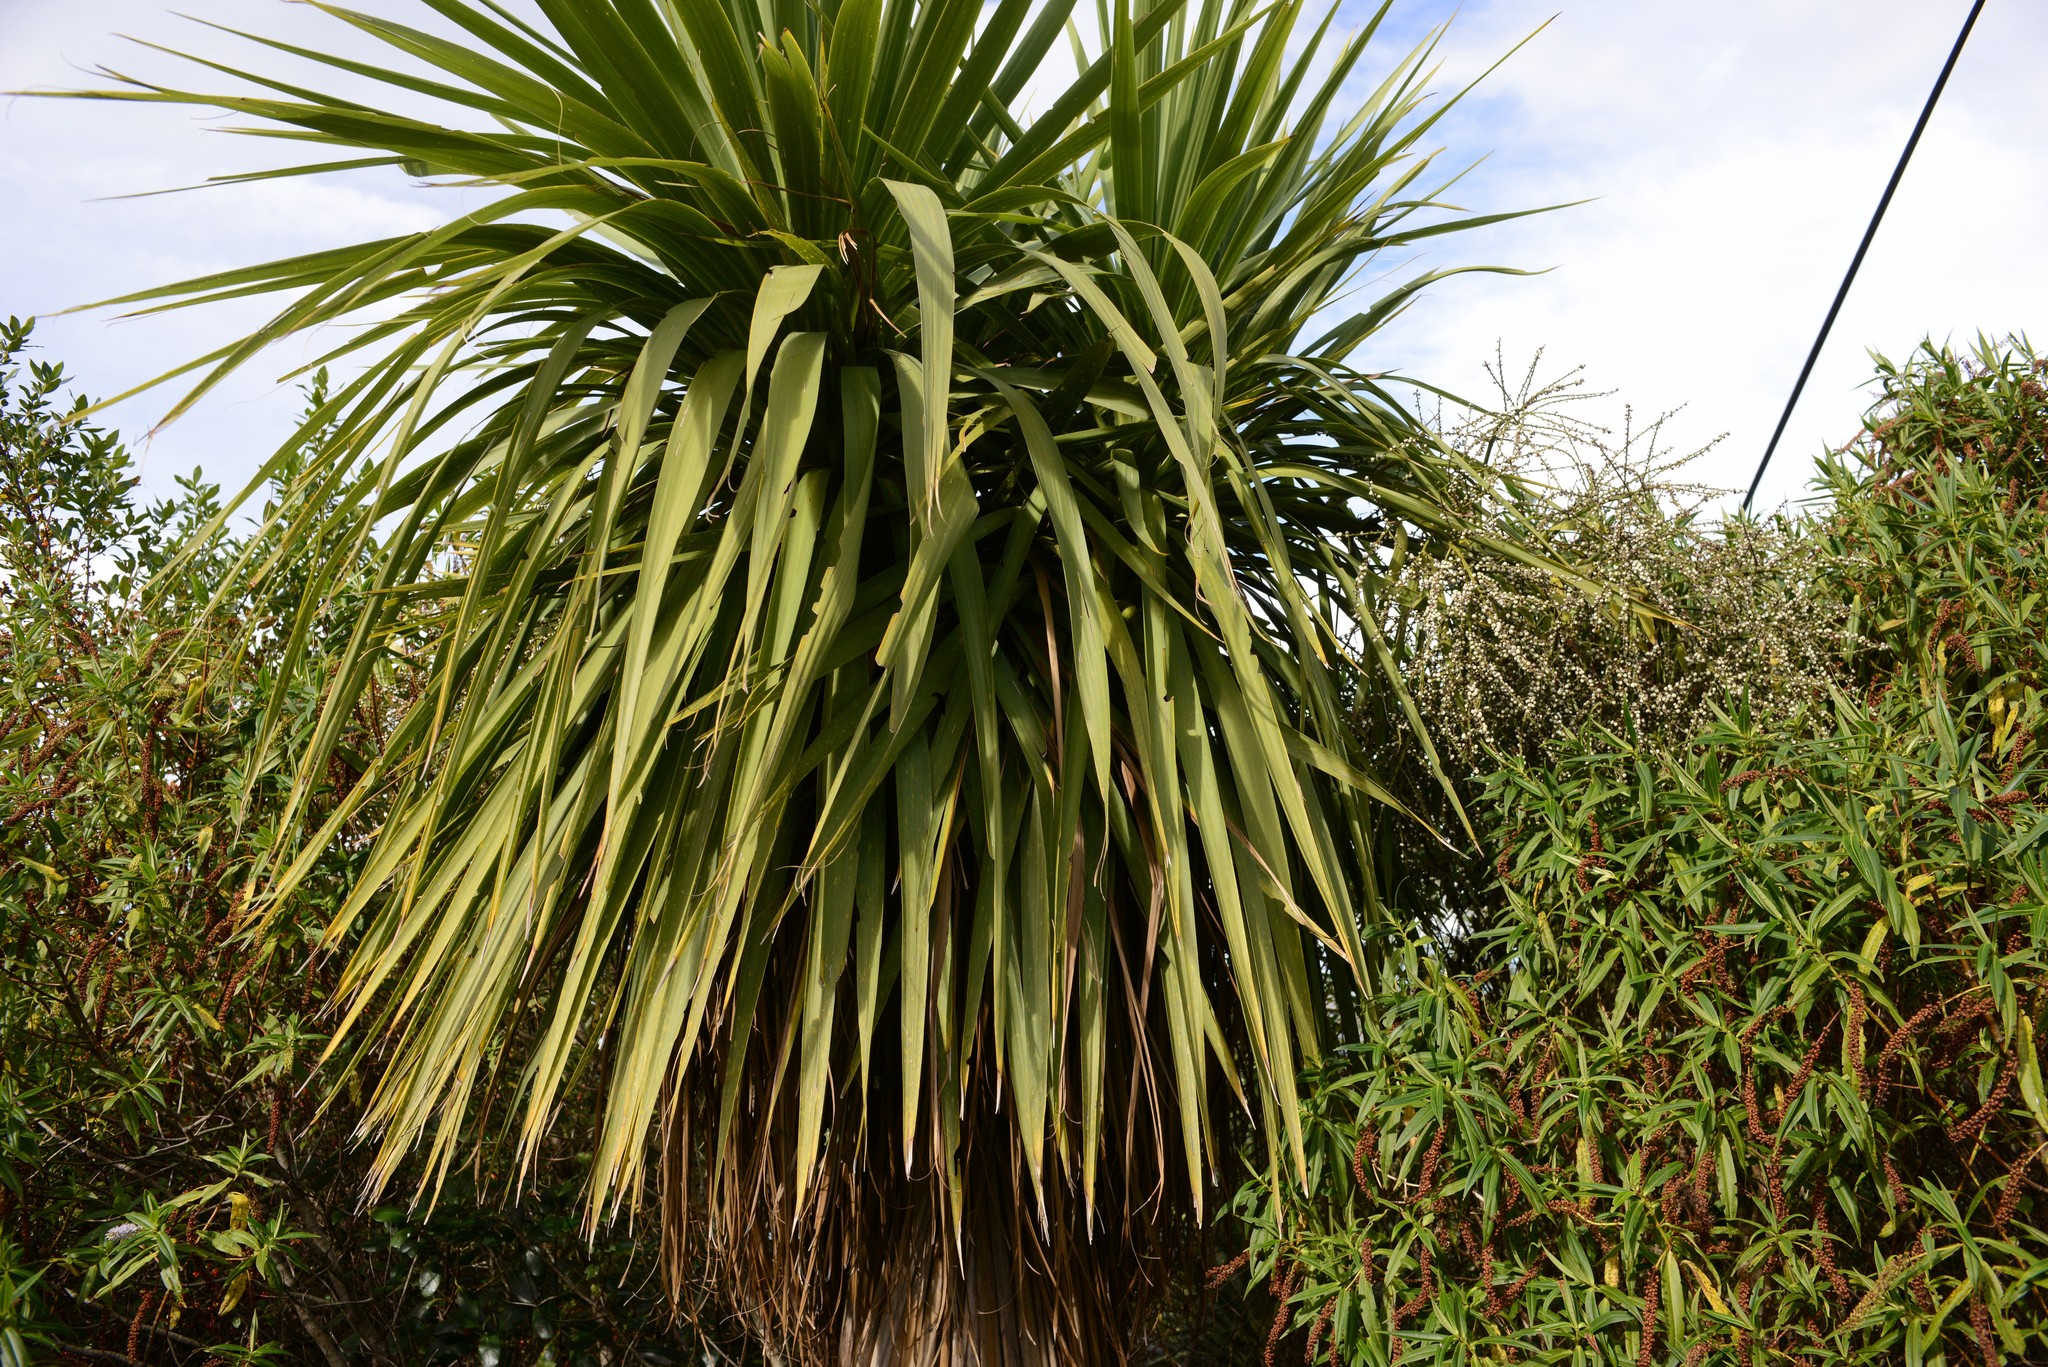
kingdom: Plantae
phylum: Tracheophyta
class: Liliopsida
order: Asparagales
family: Asparagaceae
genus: Cordyline
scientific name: Cordyline australis
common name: Cabbage-palm
